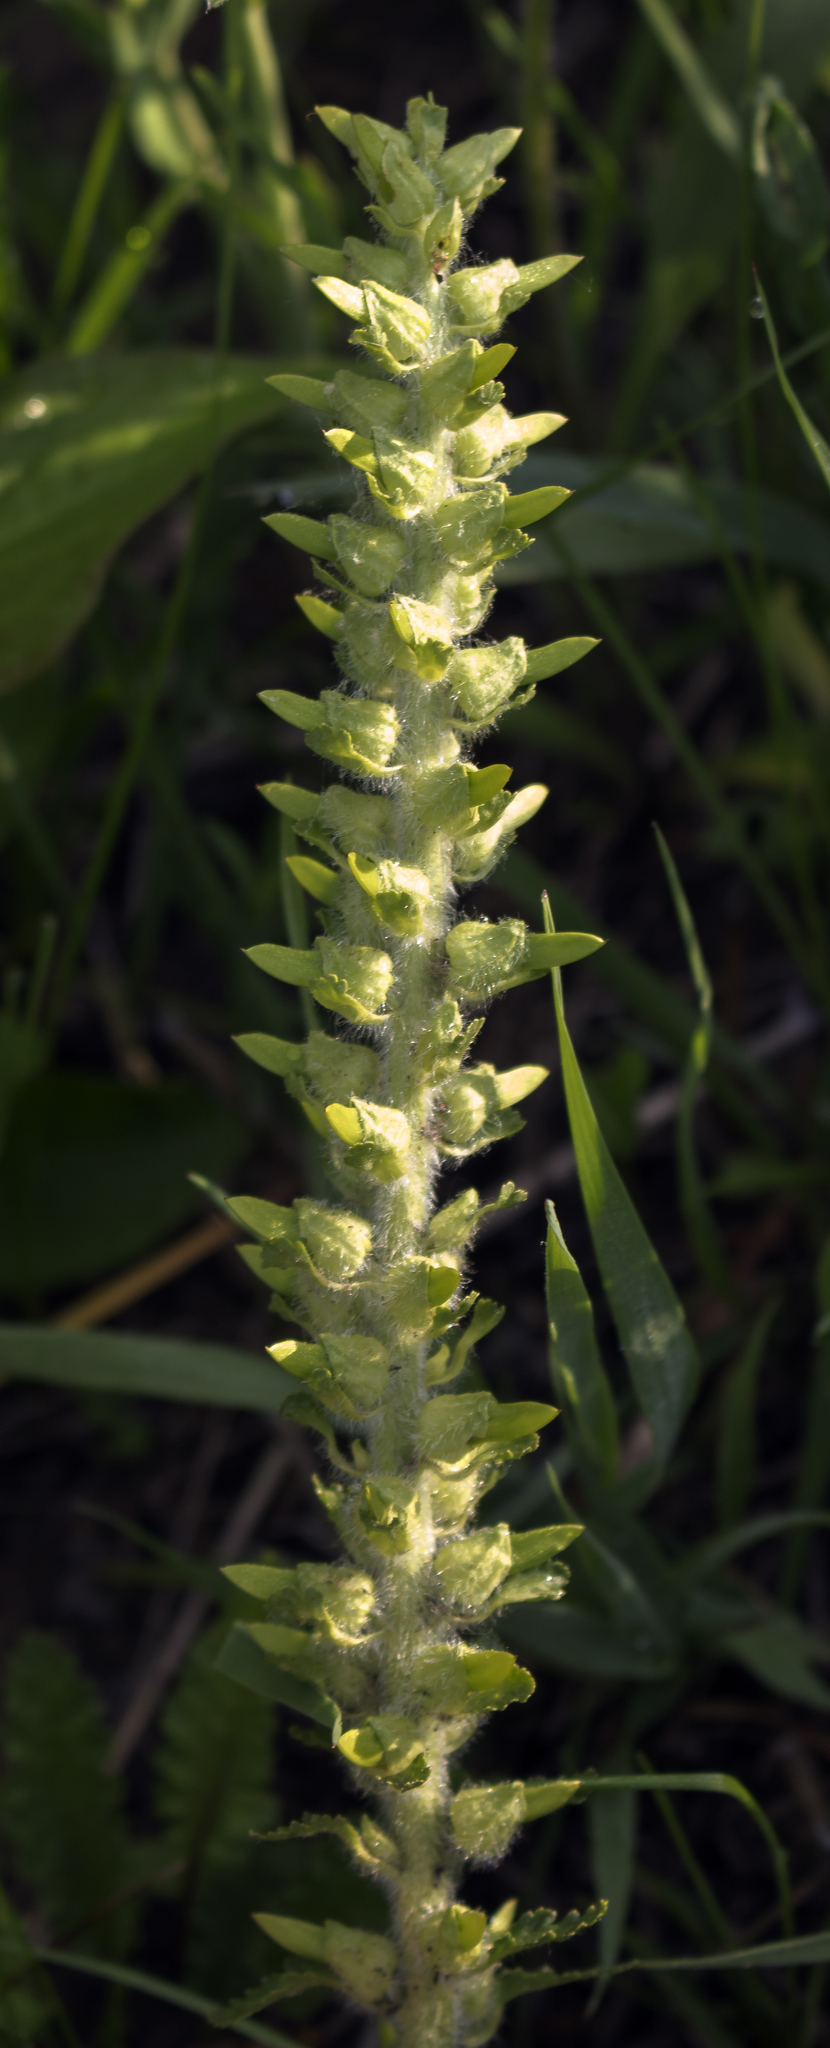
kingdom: Plantae
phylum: Tracheophyta
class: Magnoliopsida
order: Lamiales
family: Orobanchaceae
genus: Pedicularis
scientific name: Pedicularis canadensis
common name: Early lousewort
